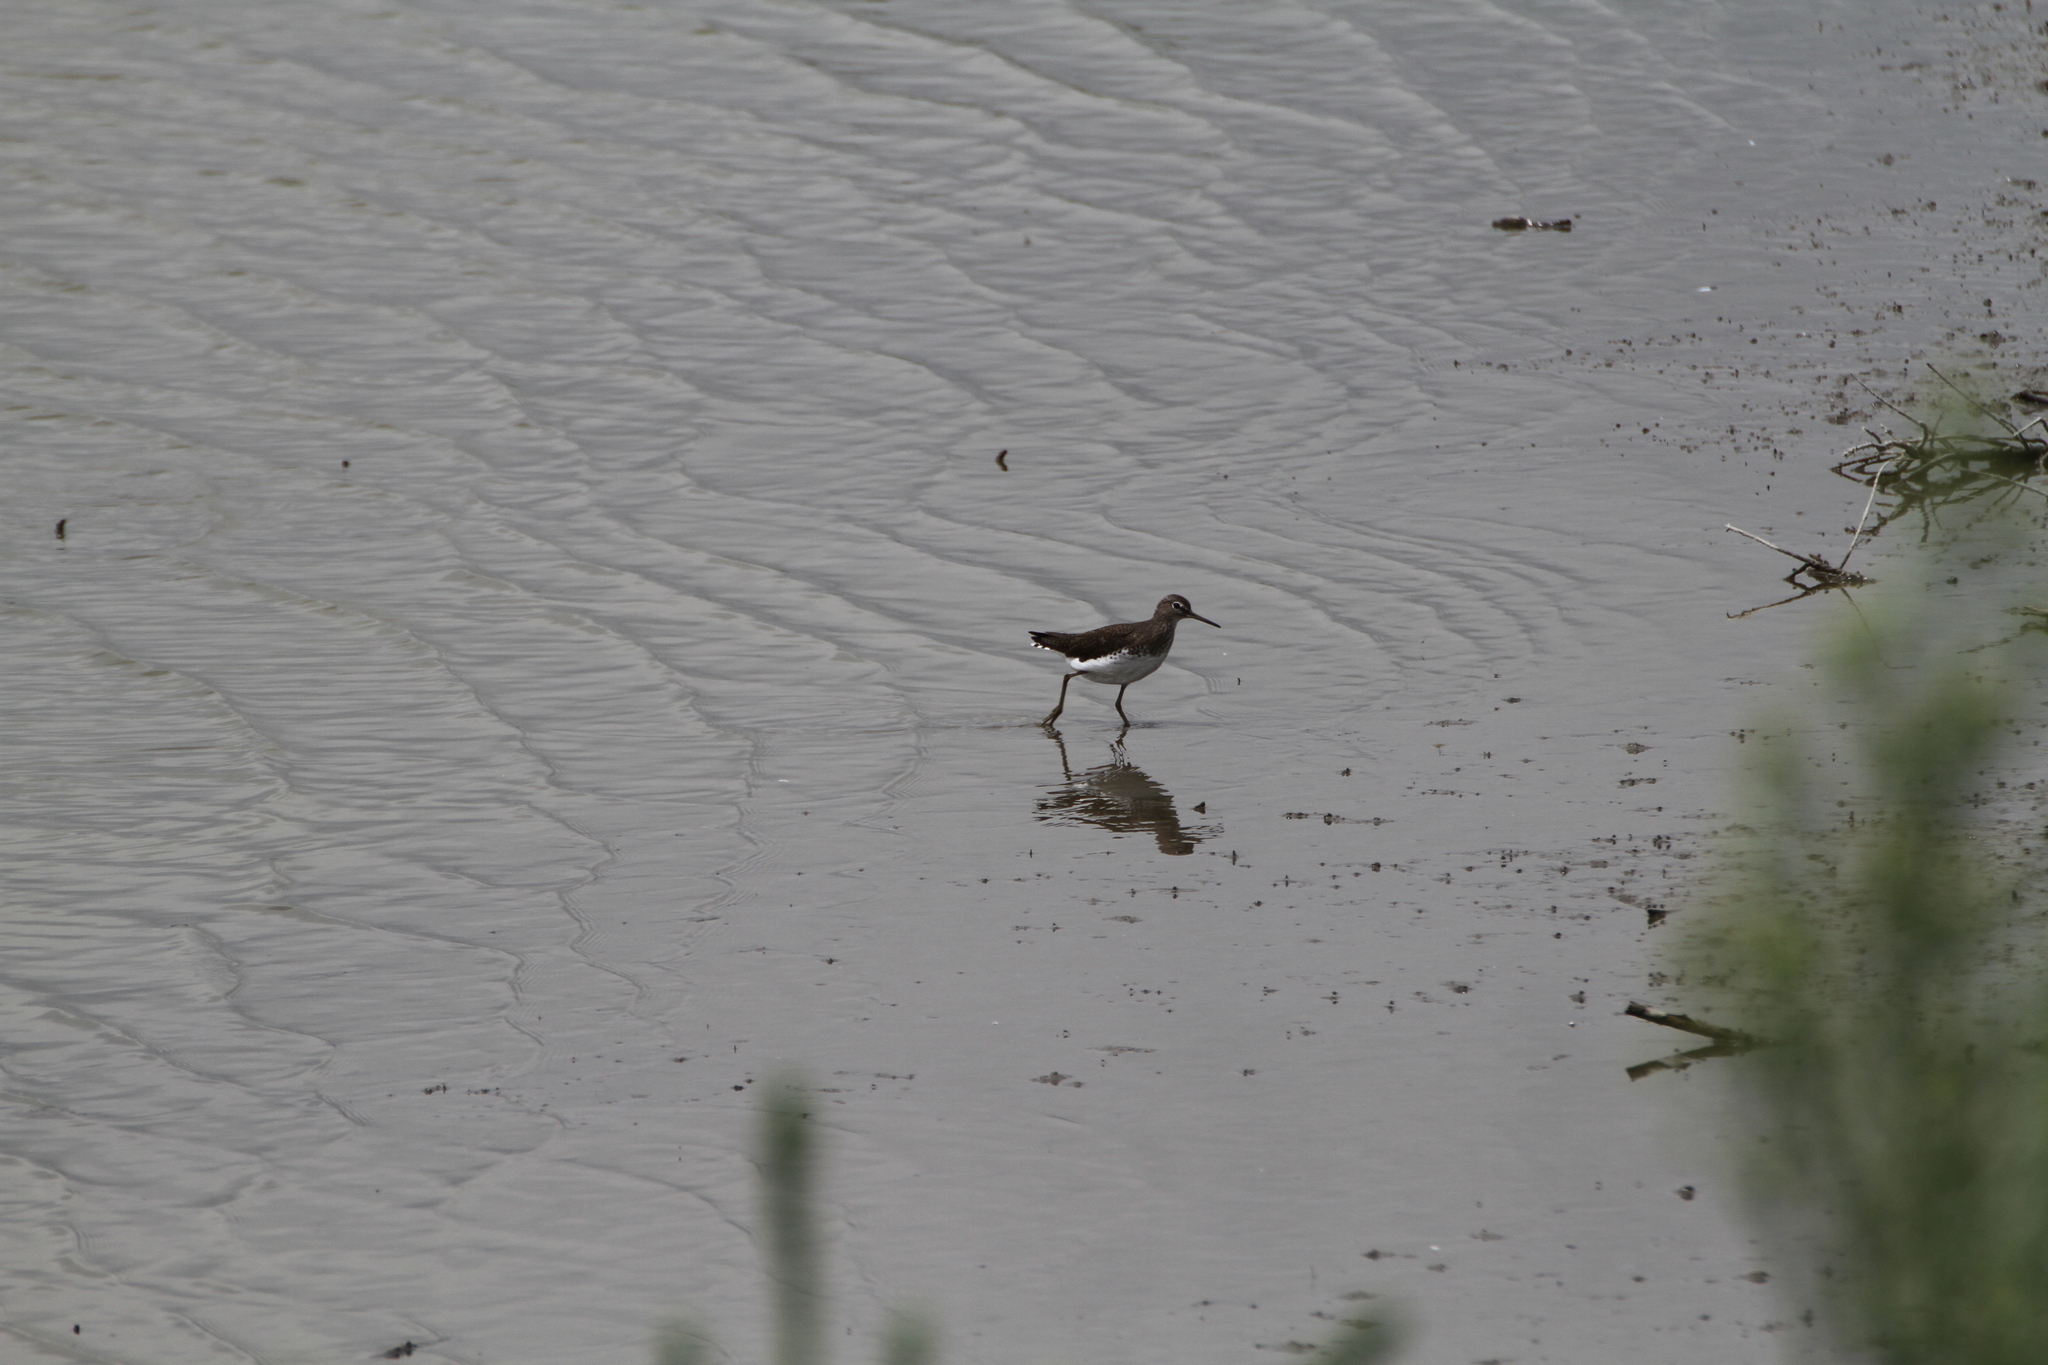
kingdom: Animalia
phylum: Chordata
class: Aves
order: Charadriiformes
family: Scolopacidae
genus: Tringa
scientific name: Tringa ochropus
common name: Green sandpiper
